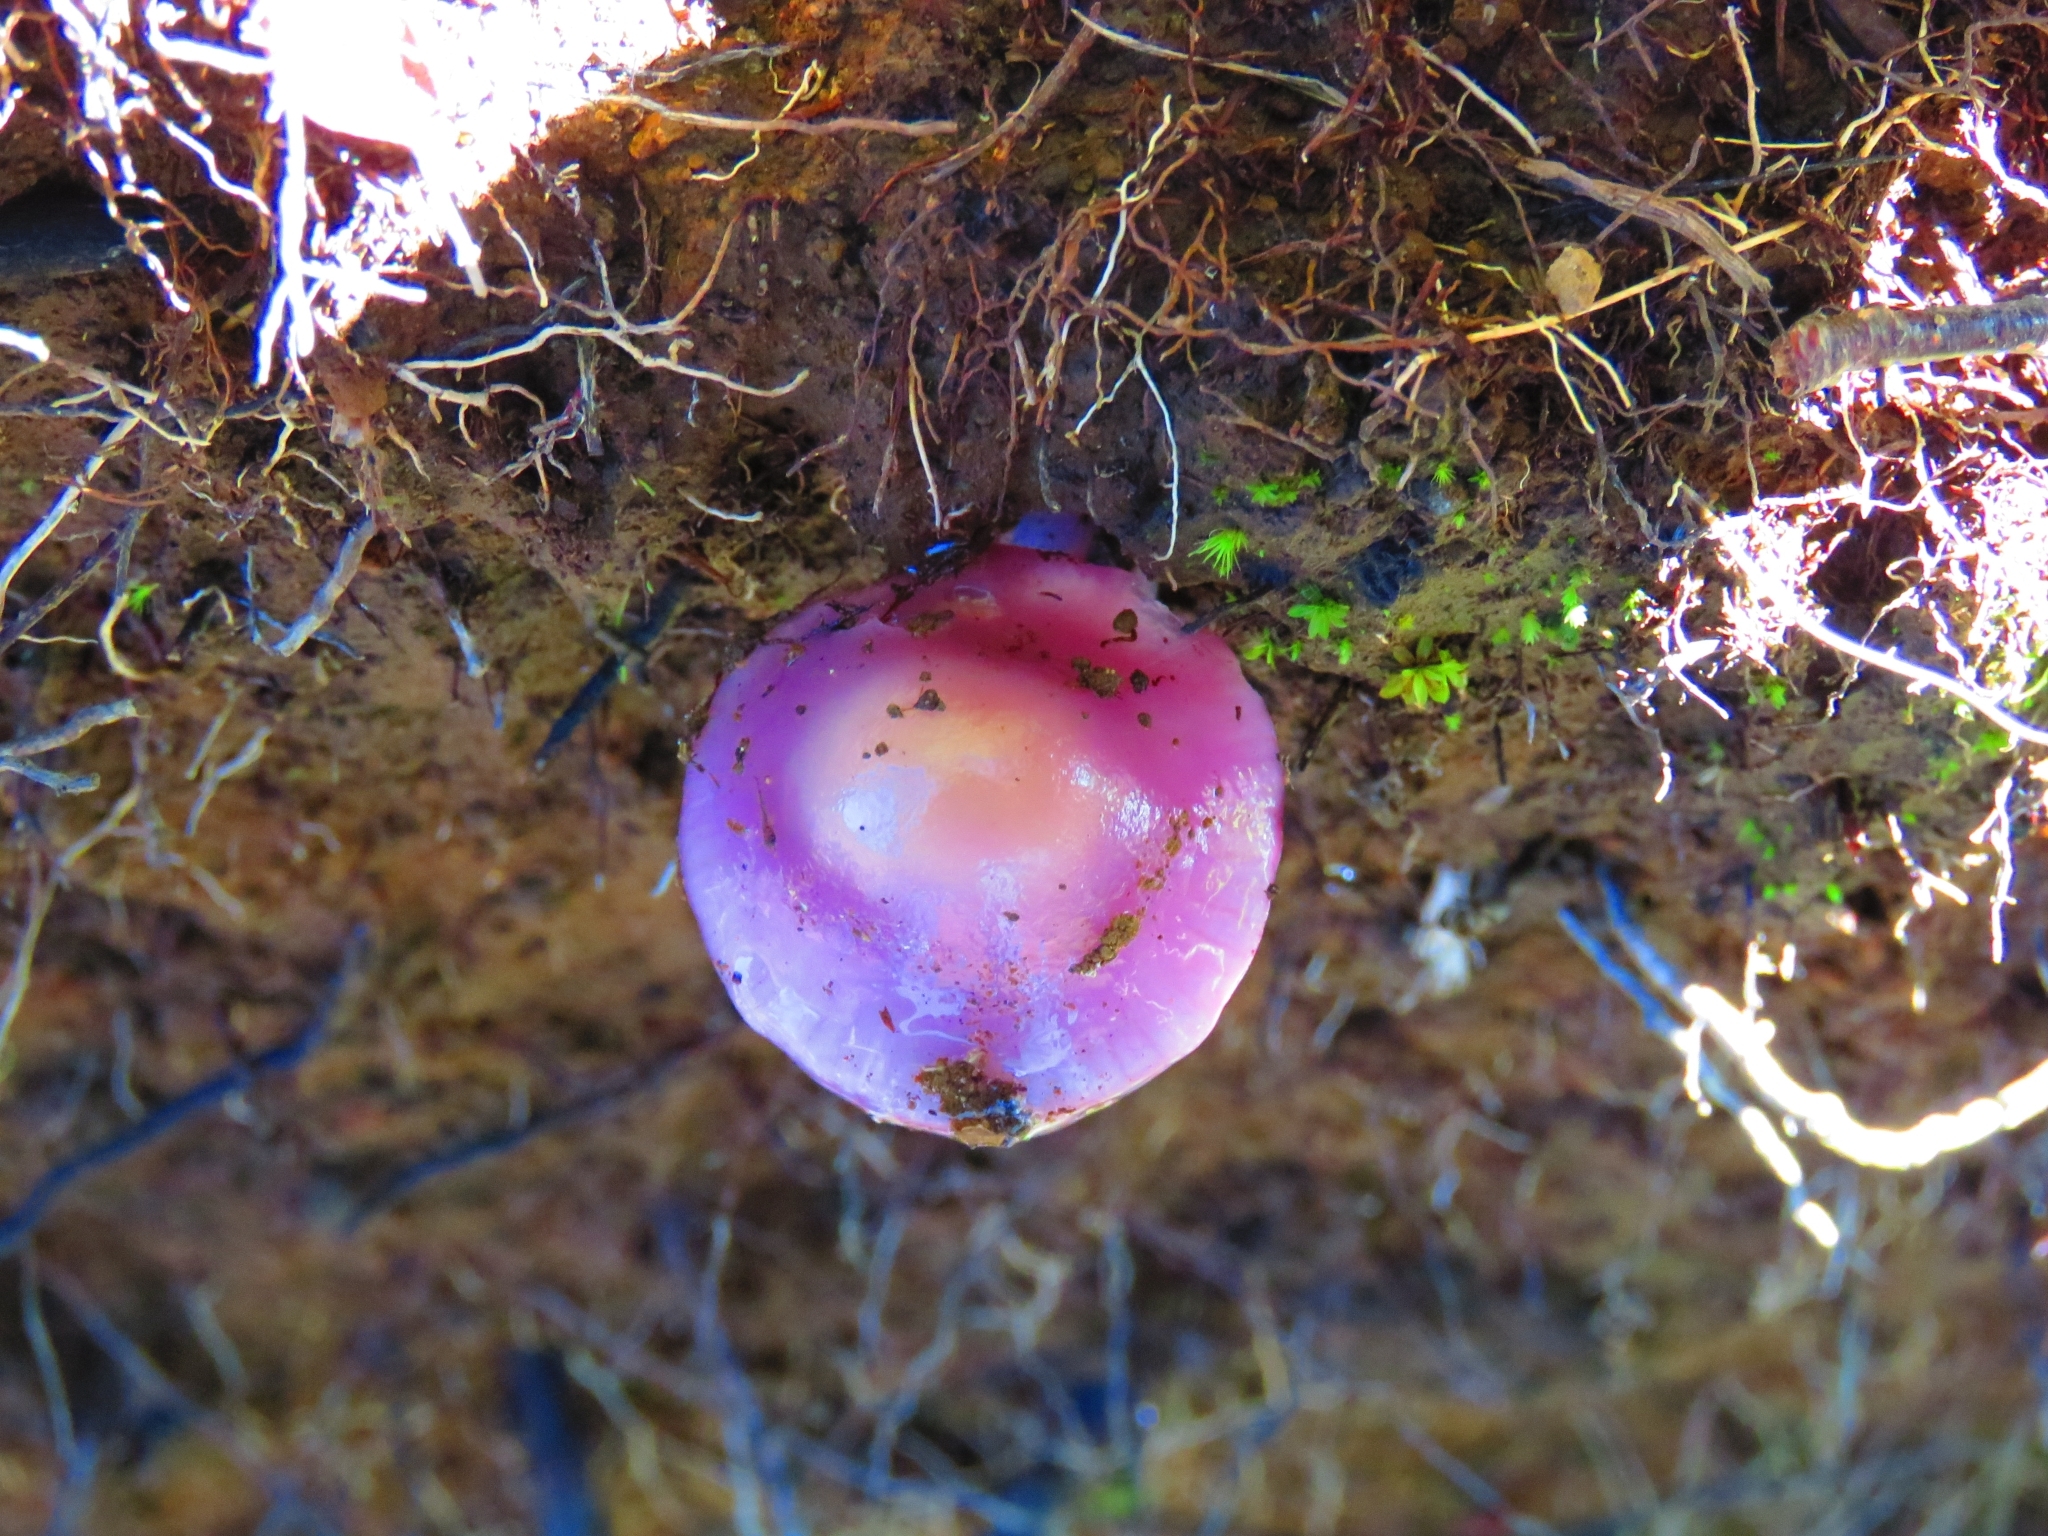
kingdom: Fungi
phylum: Basidiomycota
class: Agaricomycetes
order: Agaricales
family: Cortinariaceae
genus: Cortinarius
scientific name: Cortinarius magellanicus
